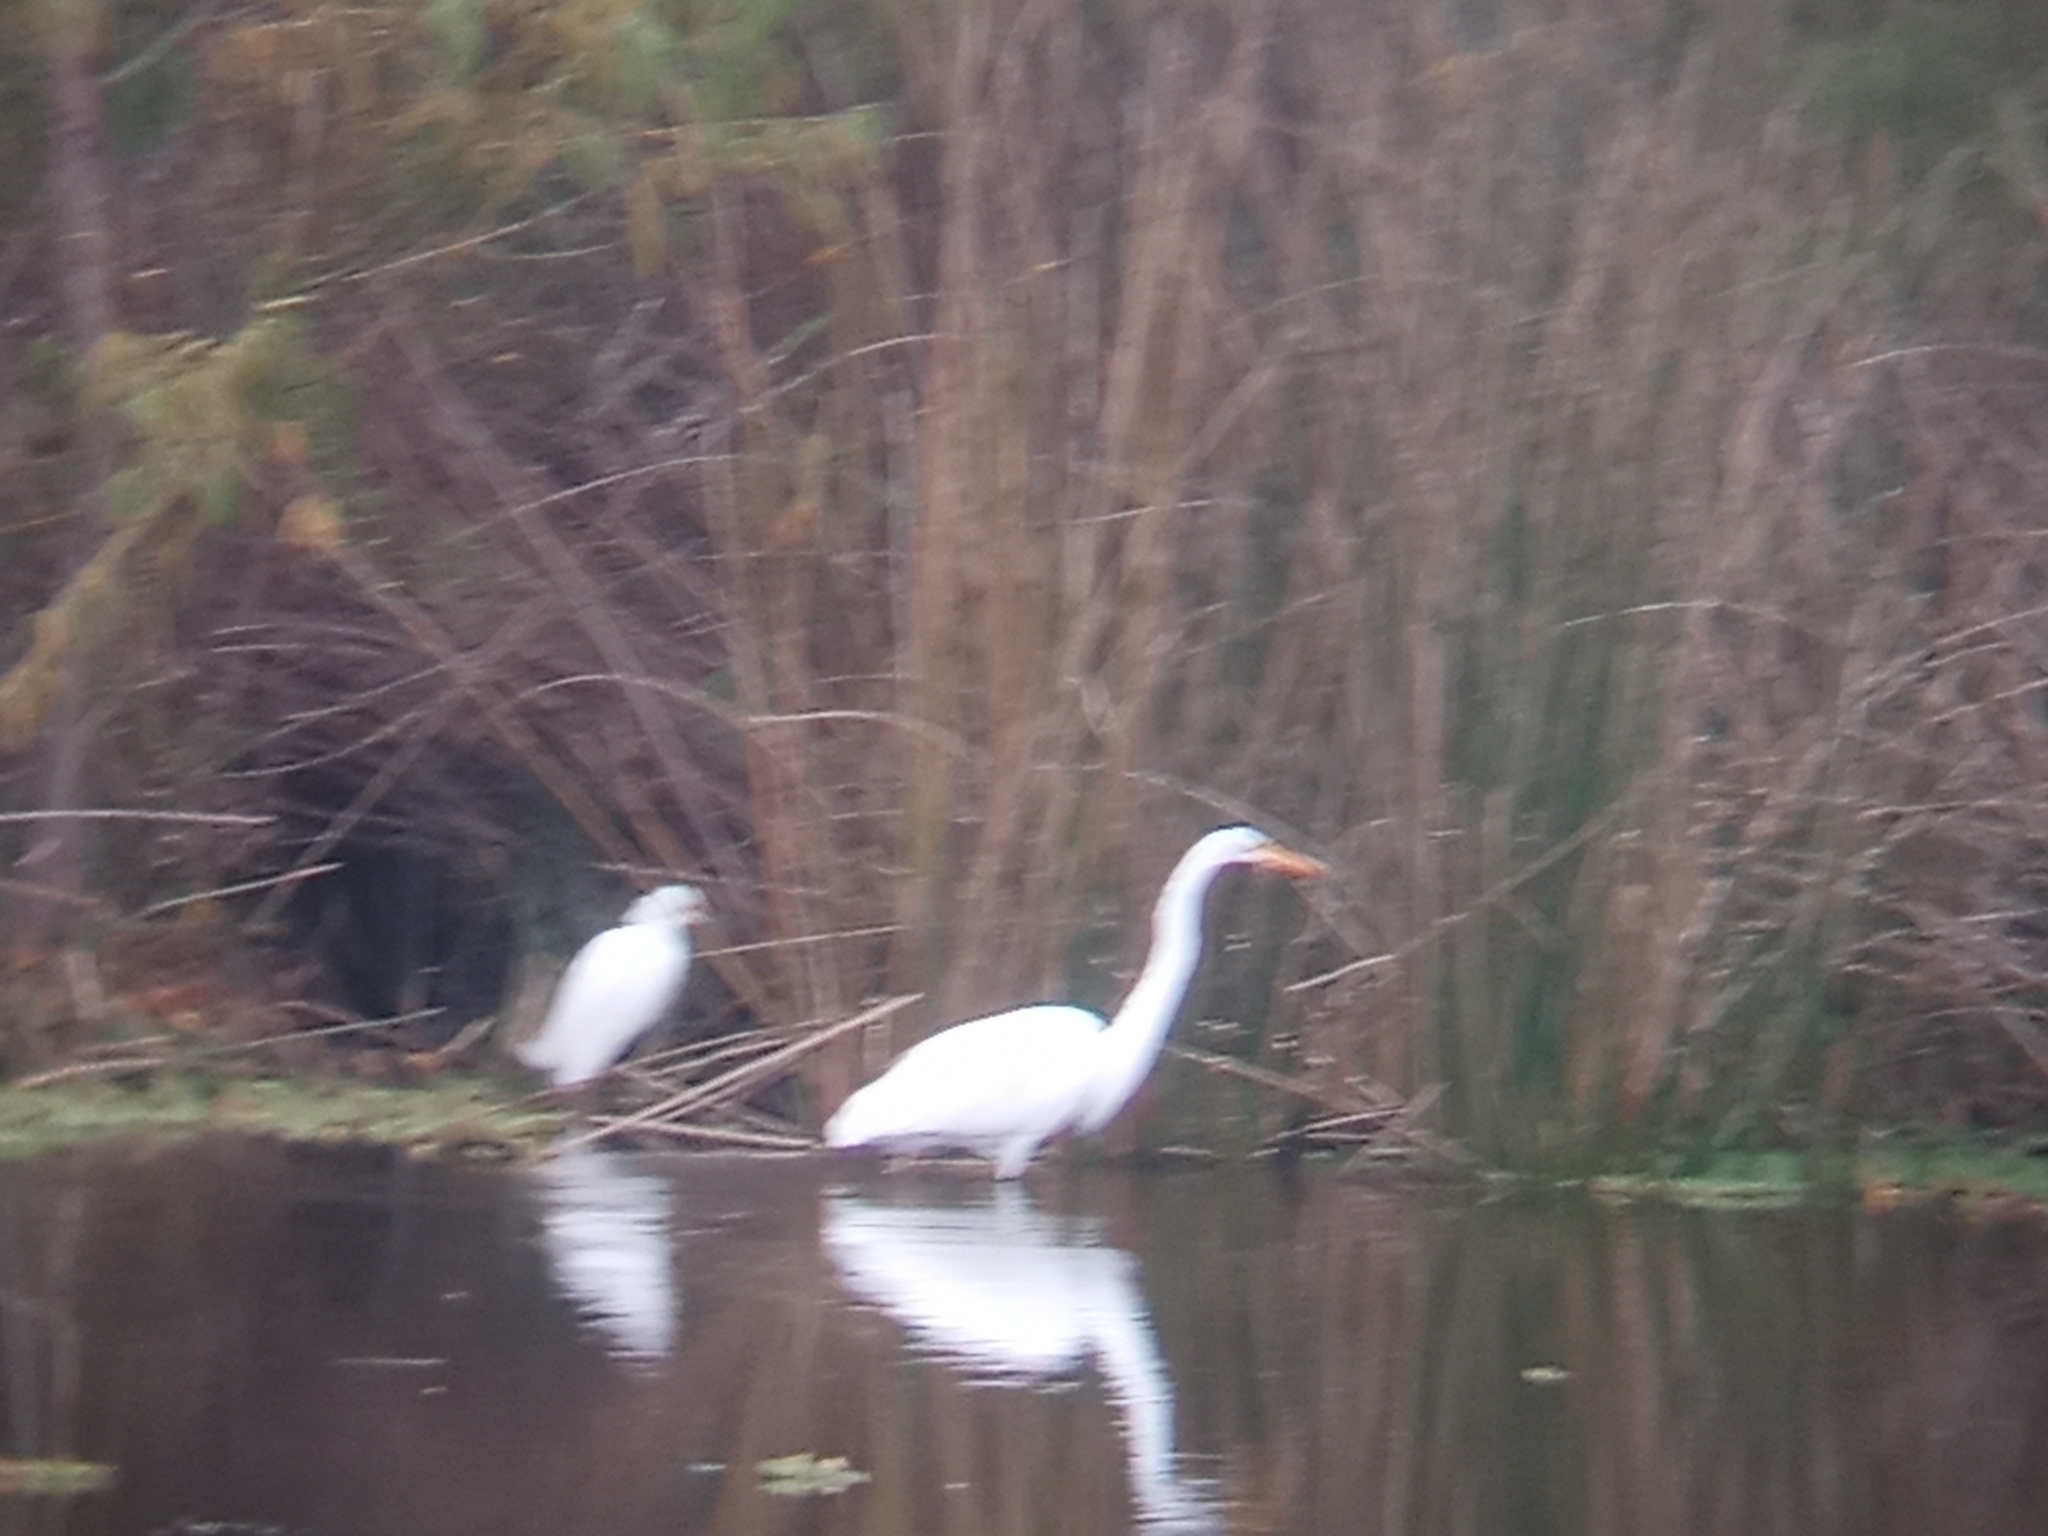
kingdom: Animalia
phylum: Chordata
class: Aves
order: Pelecaniformes
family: Ardeidae
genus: Egretta
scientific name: Egretta thula
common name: Snowy egret
